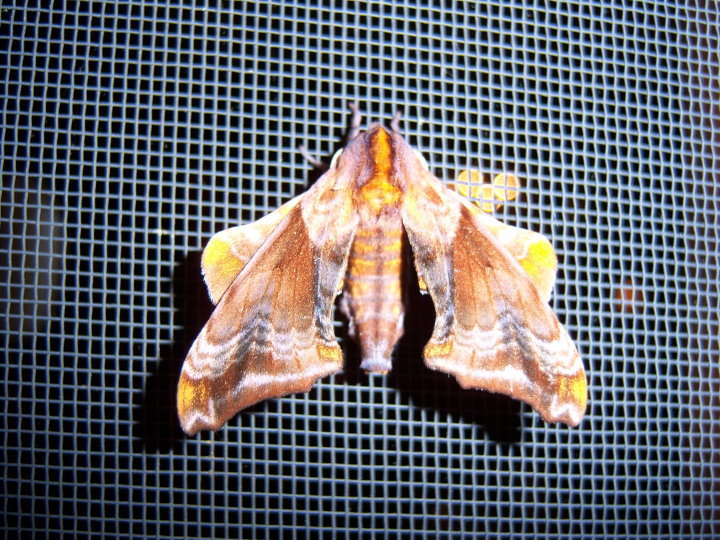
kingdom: Animalia
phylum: Arthropoda
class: Insecta
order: Lepidoptera
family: Sphingidae
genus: Paonias
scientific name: Paonias myops
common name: Small-eyed sphinx
